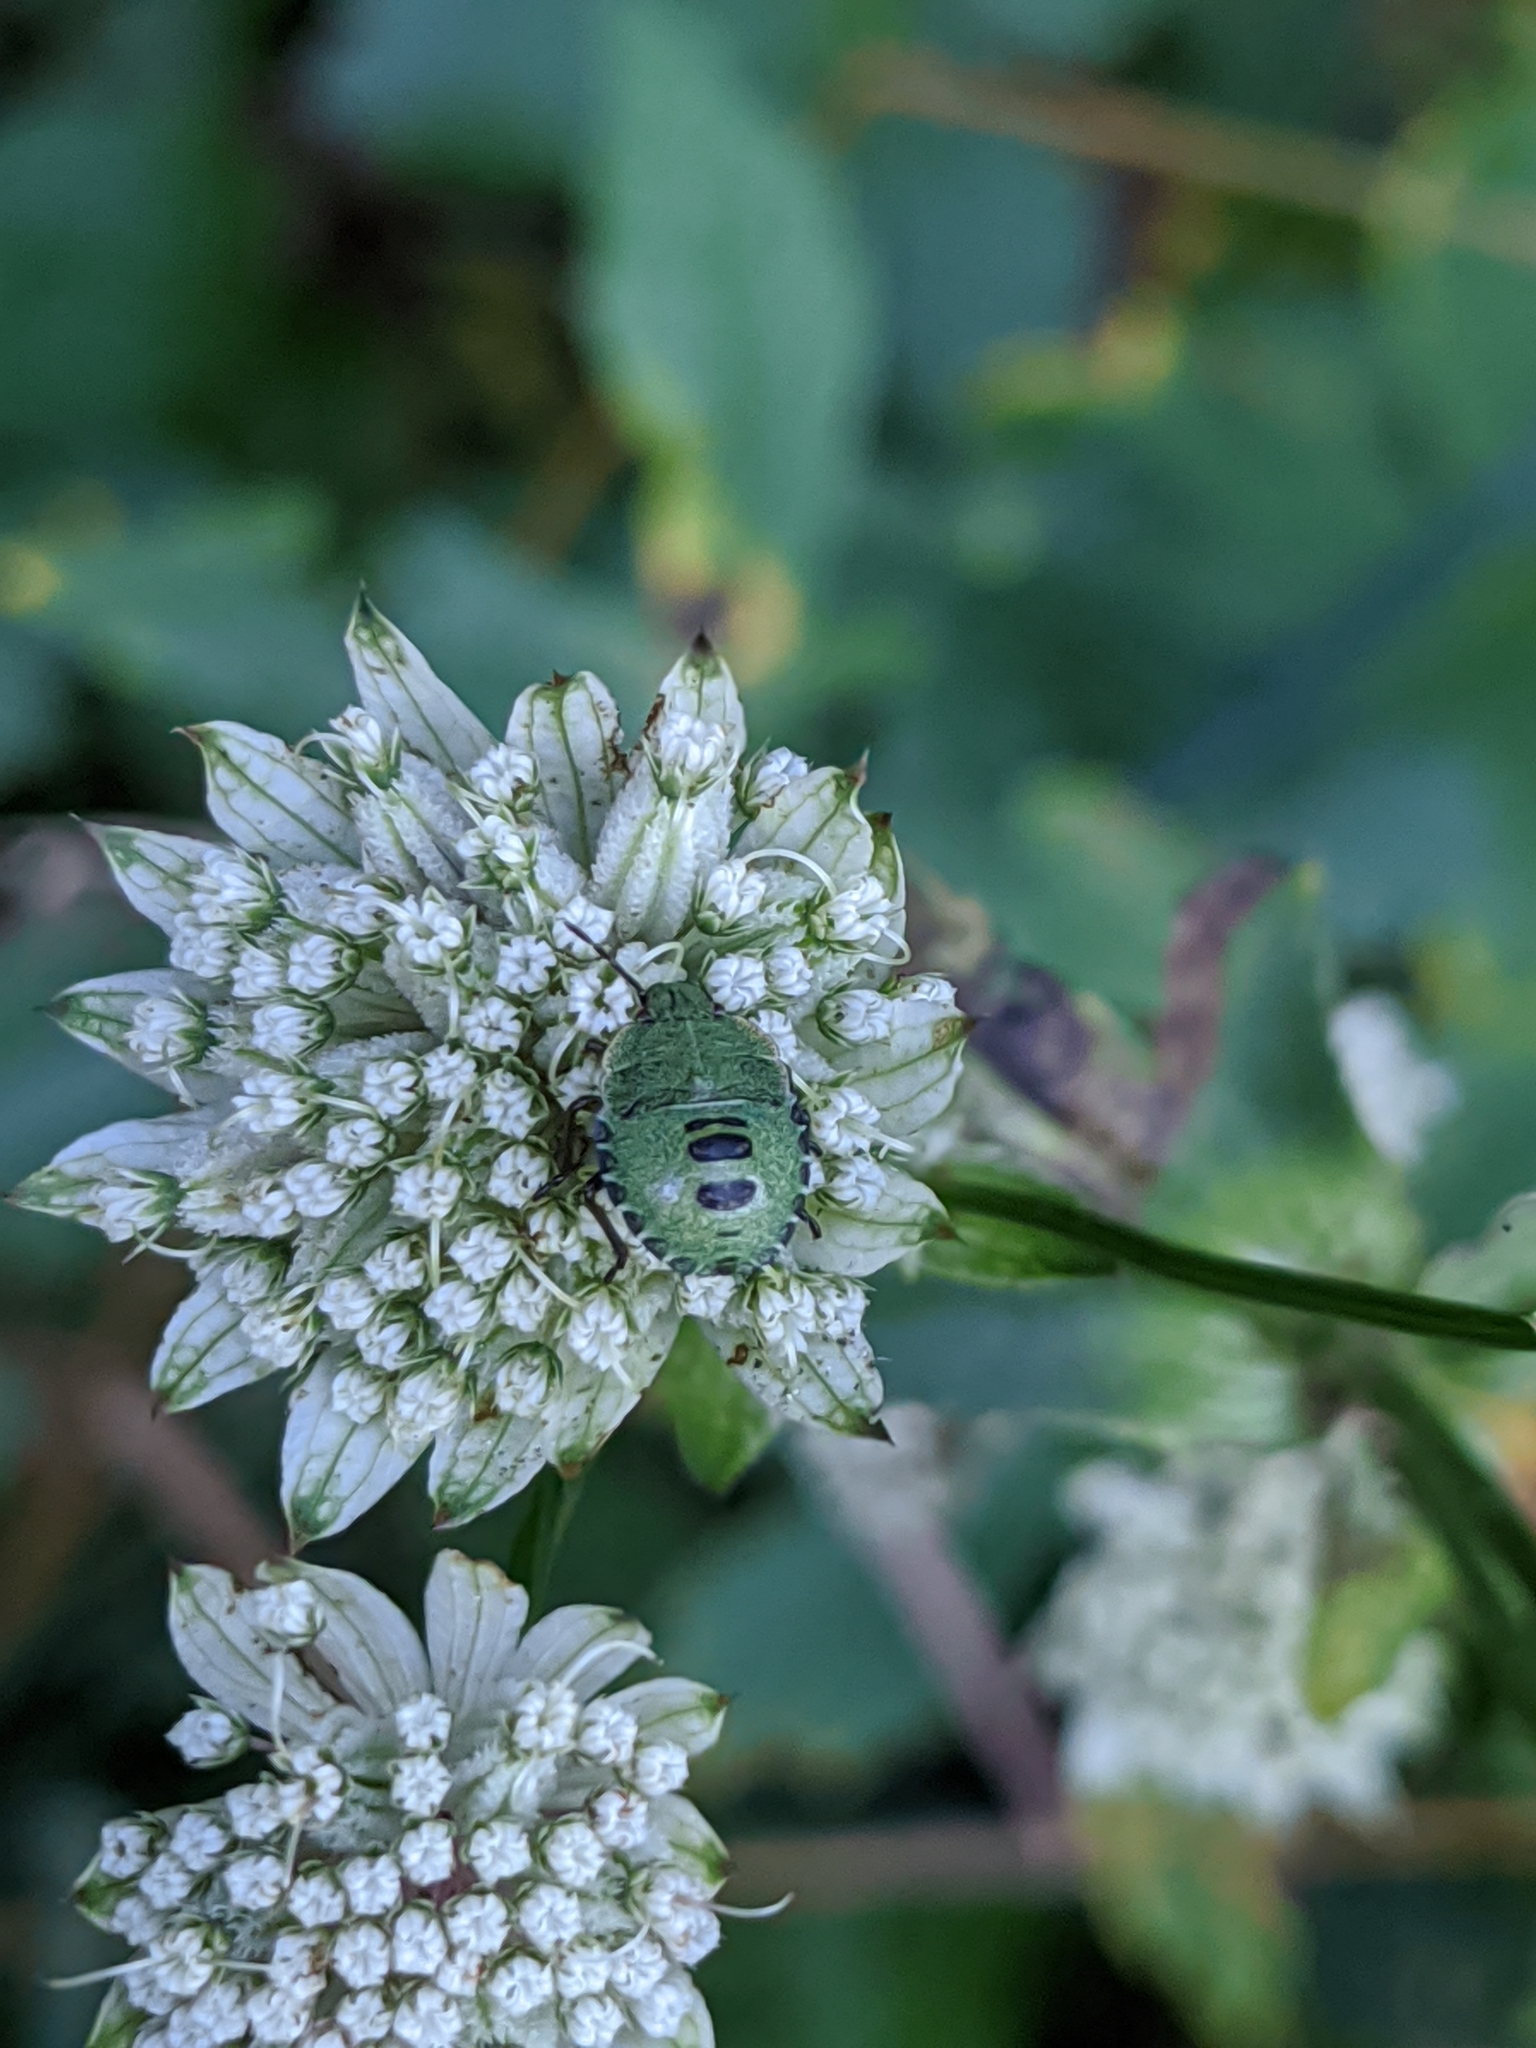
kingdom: Animalia
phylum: Arthropoda
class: Insecta
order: Hemiptera
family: Pentatomidae
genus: Palomena
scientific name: Palomena prasina
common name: Green shieldbug
